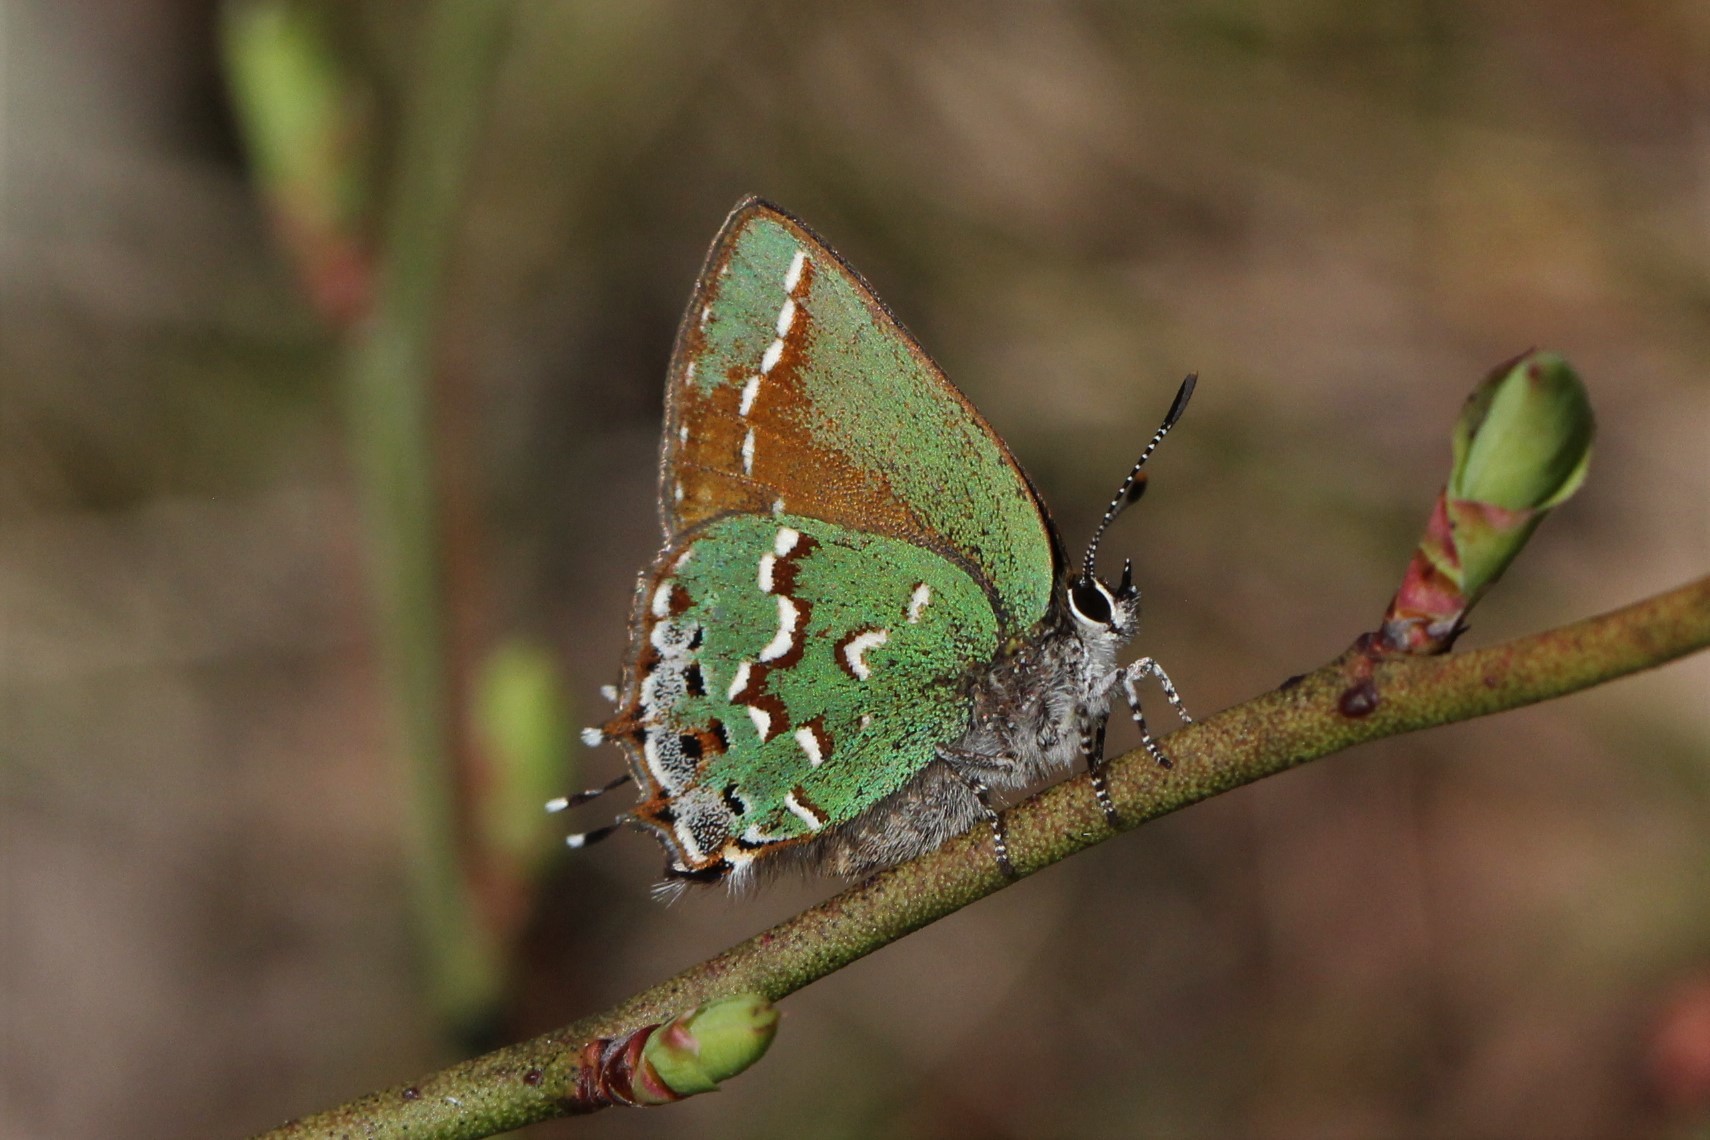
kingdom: Animalia
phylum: Arthropoda
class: Insecta
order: Lepidoptera
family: Lycaenidae
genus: Mitoura
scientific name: Mitoura gryneus
